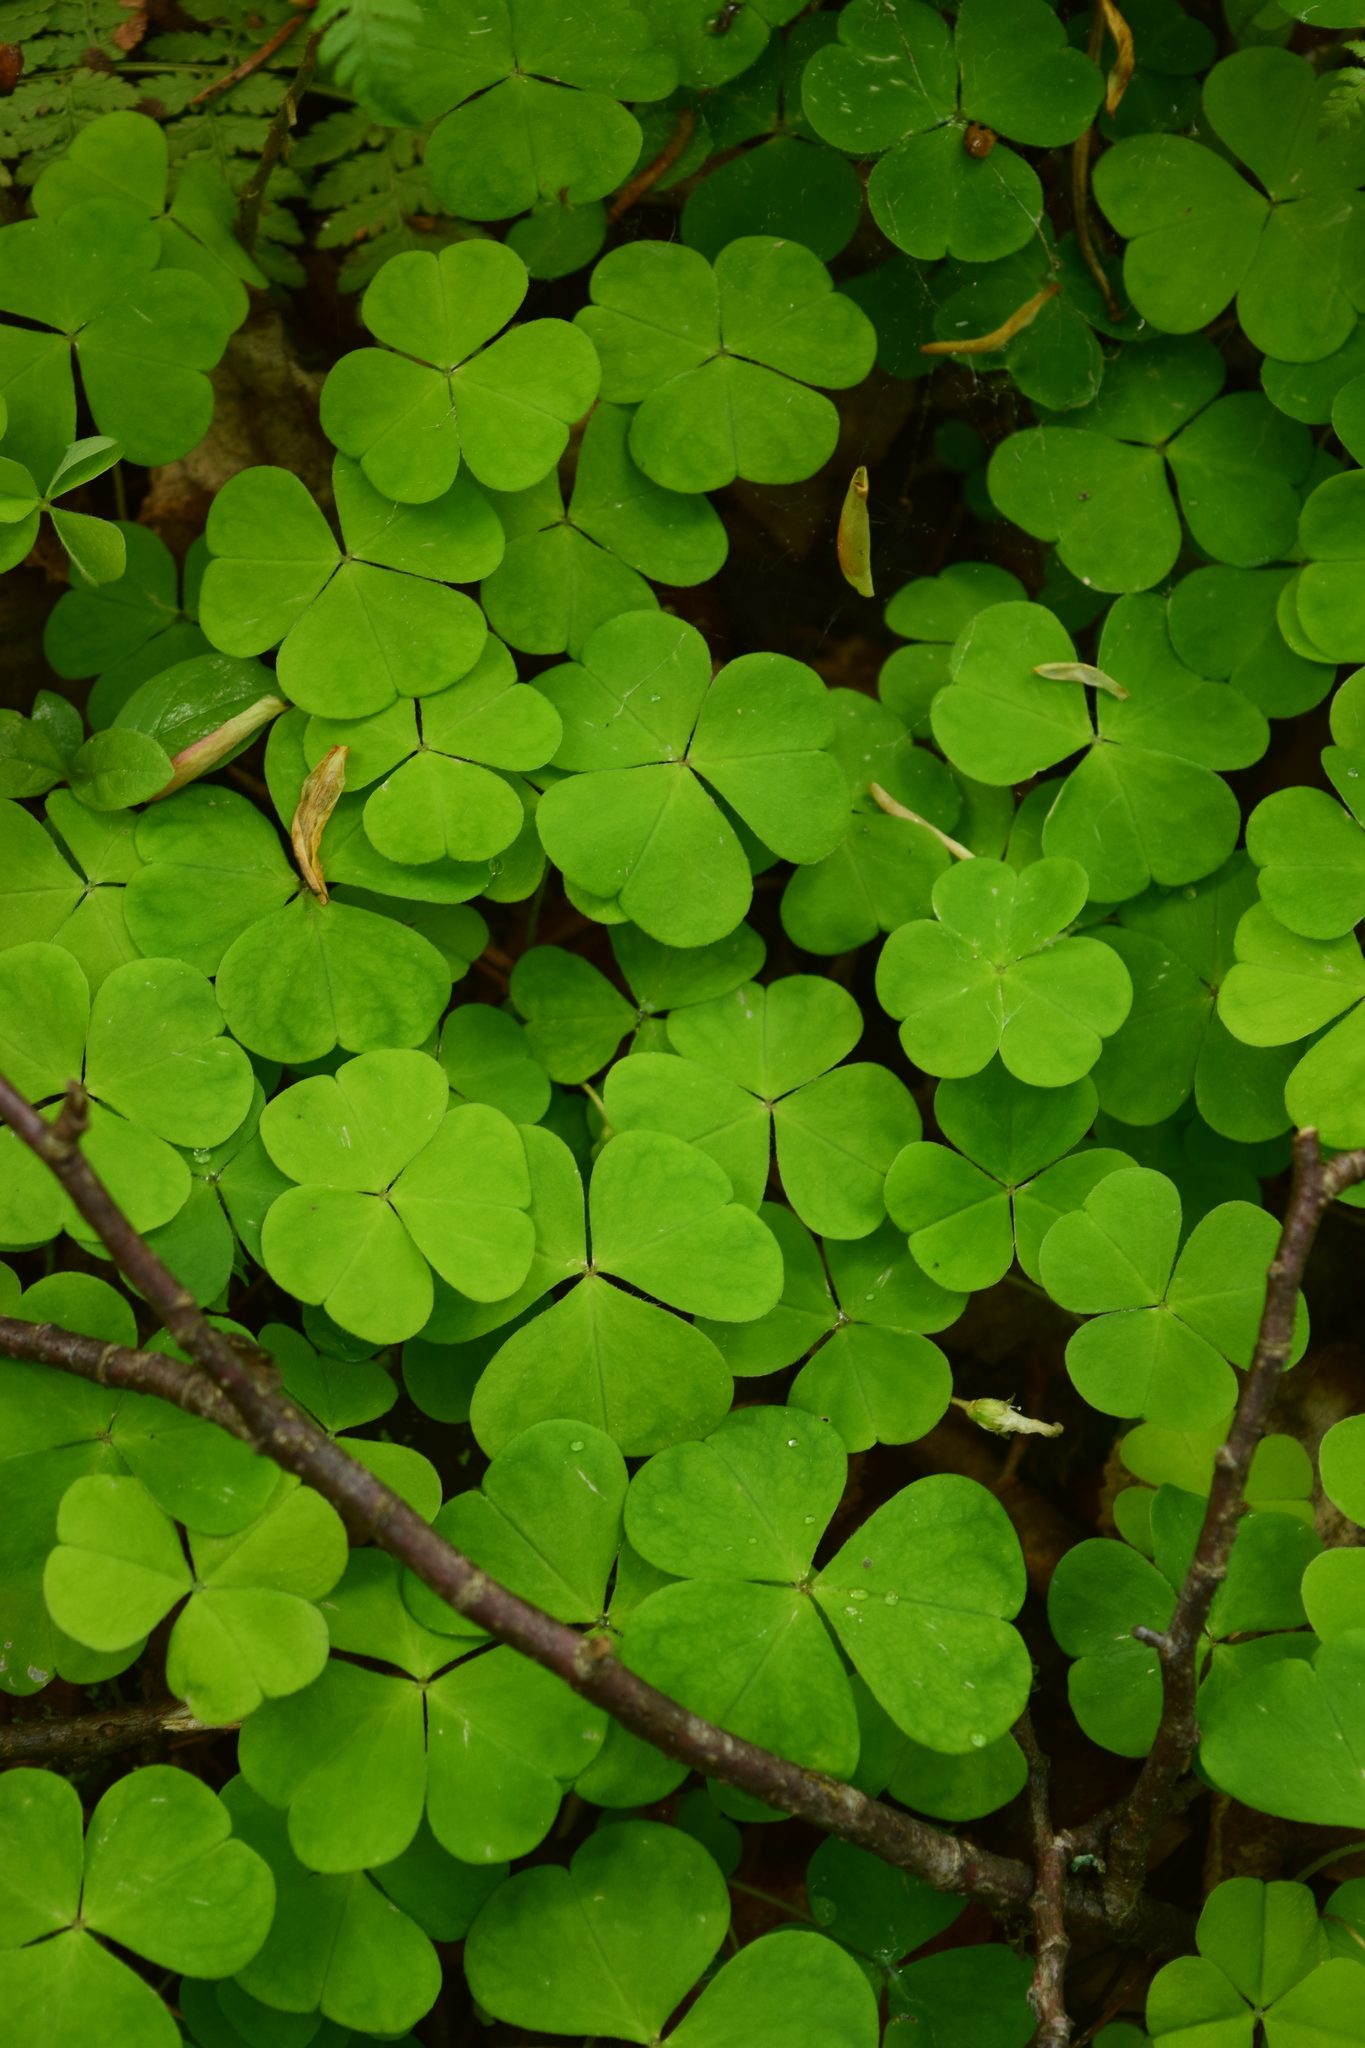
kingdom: Plantae
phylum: Tracheophyta
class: Magnoliopsida
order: Oxalidales
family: Oxalidaceae
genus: Oxalis
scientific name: Oxalis acetosella
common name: Wood-sorrel
